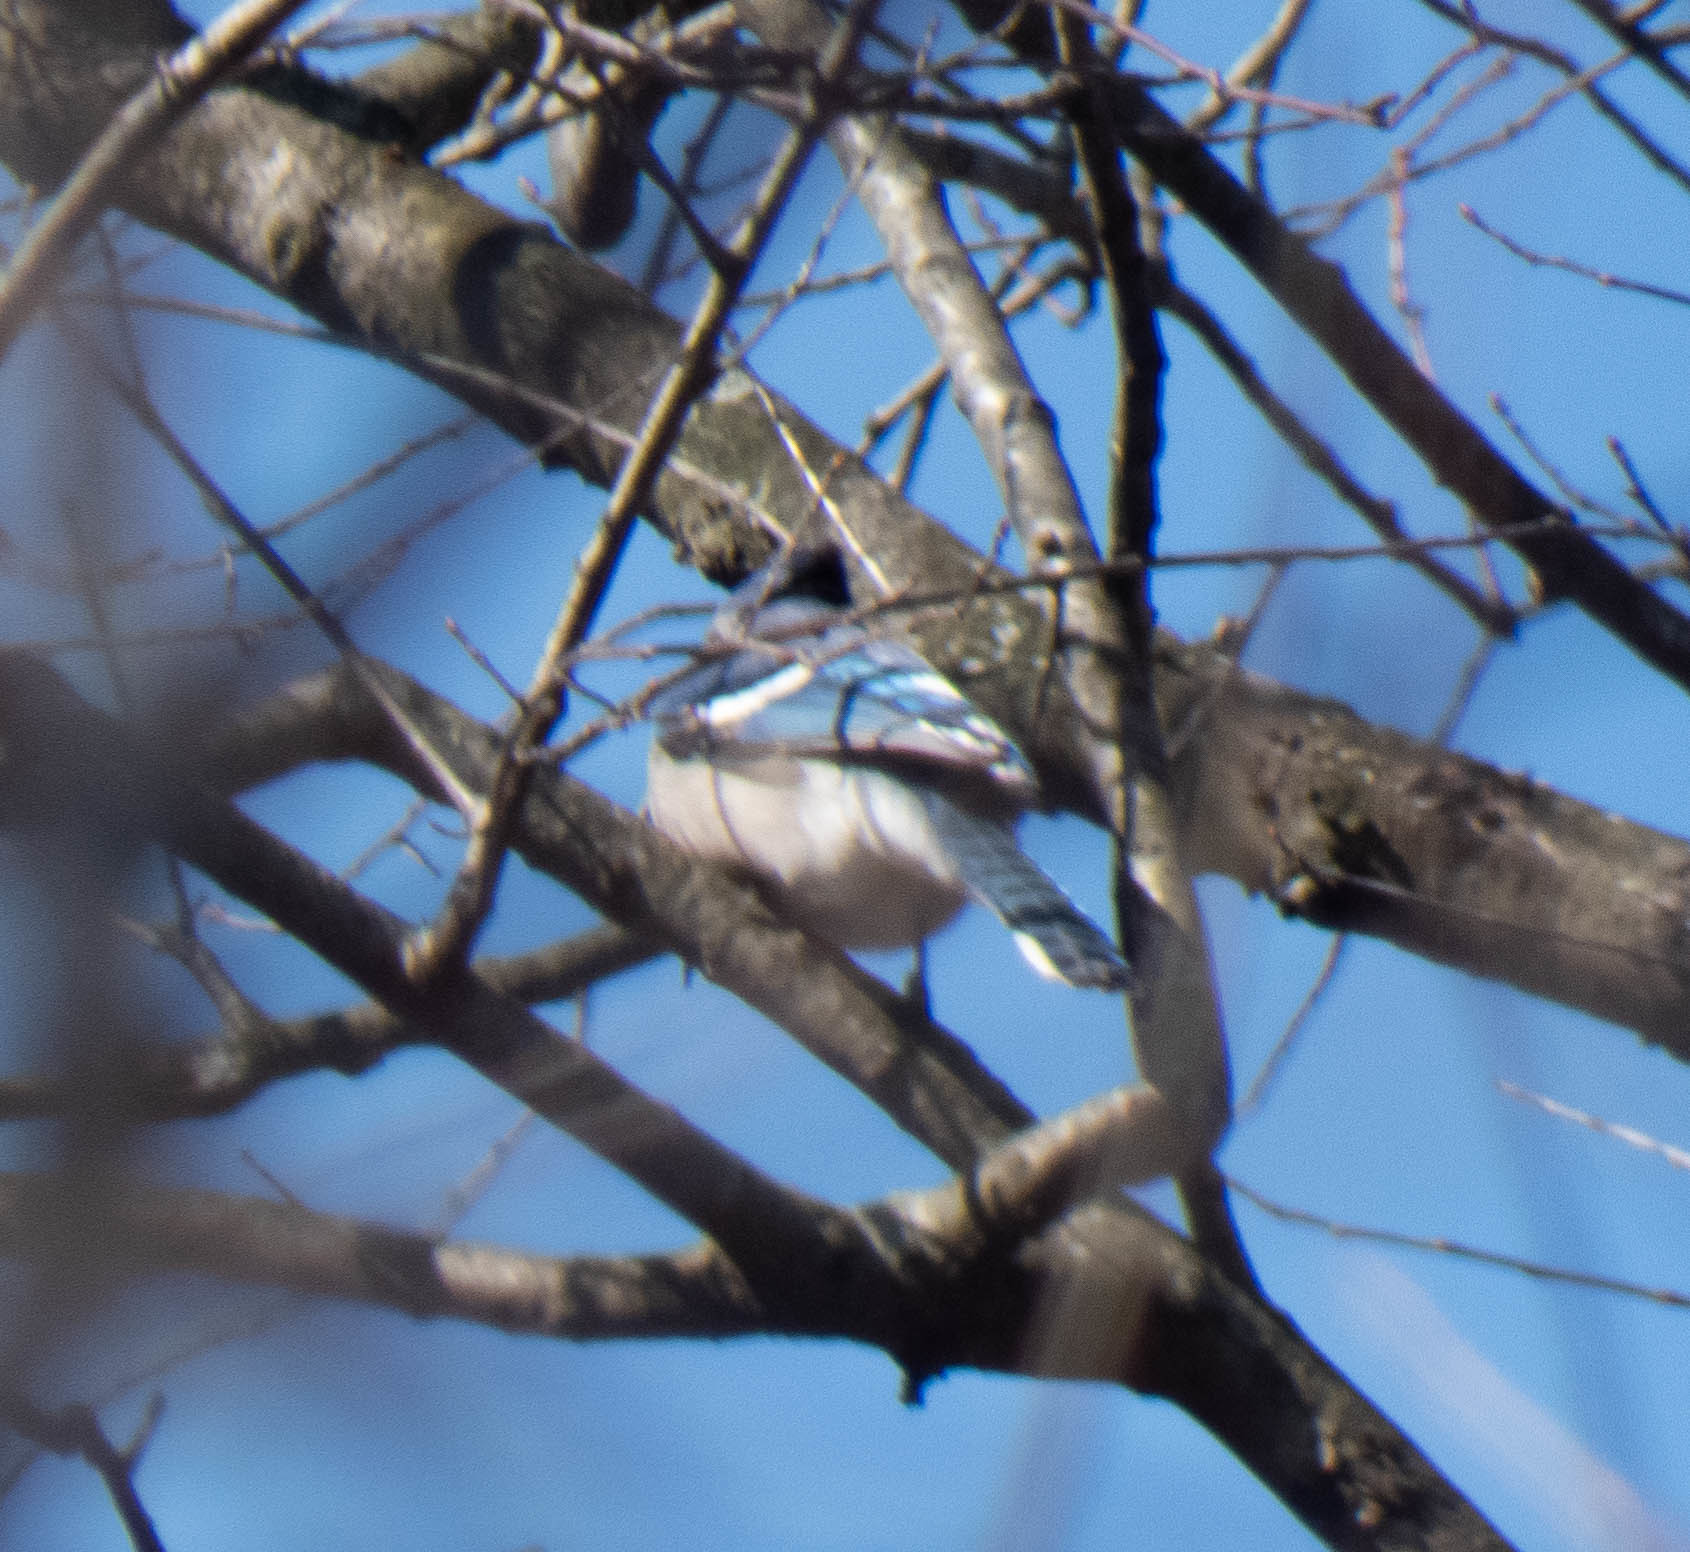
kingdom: Animalia
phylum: Chordata
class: Aves
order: Passeriformes
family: Corvidae
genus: Cyanocitta
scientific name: Cyanocitta cristata
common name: Blue jay
